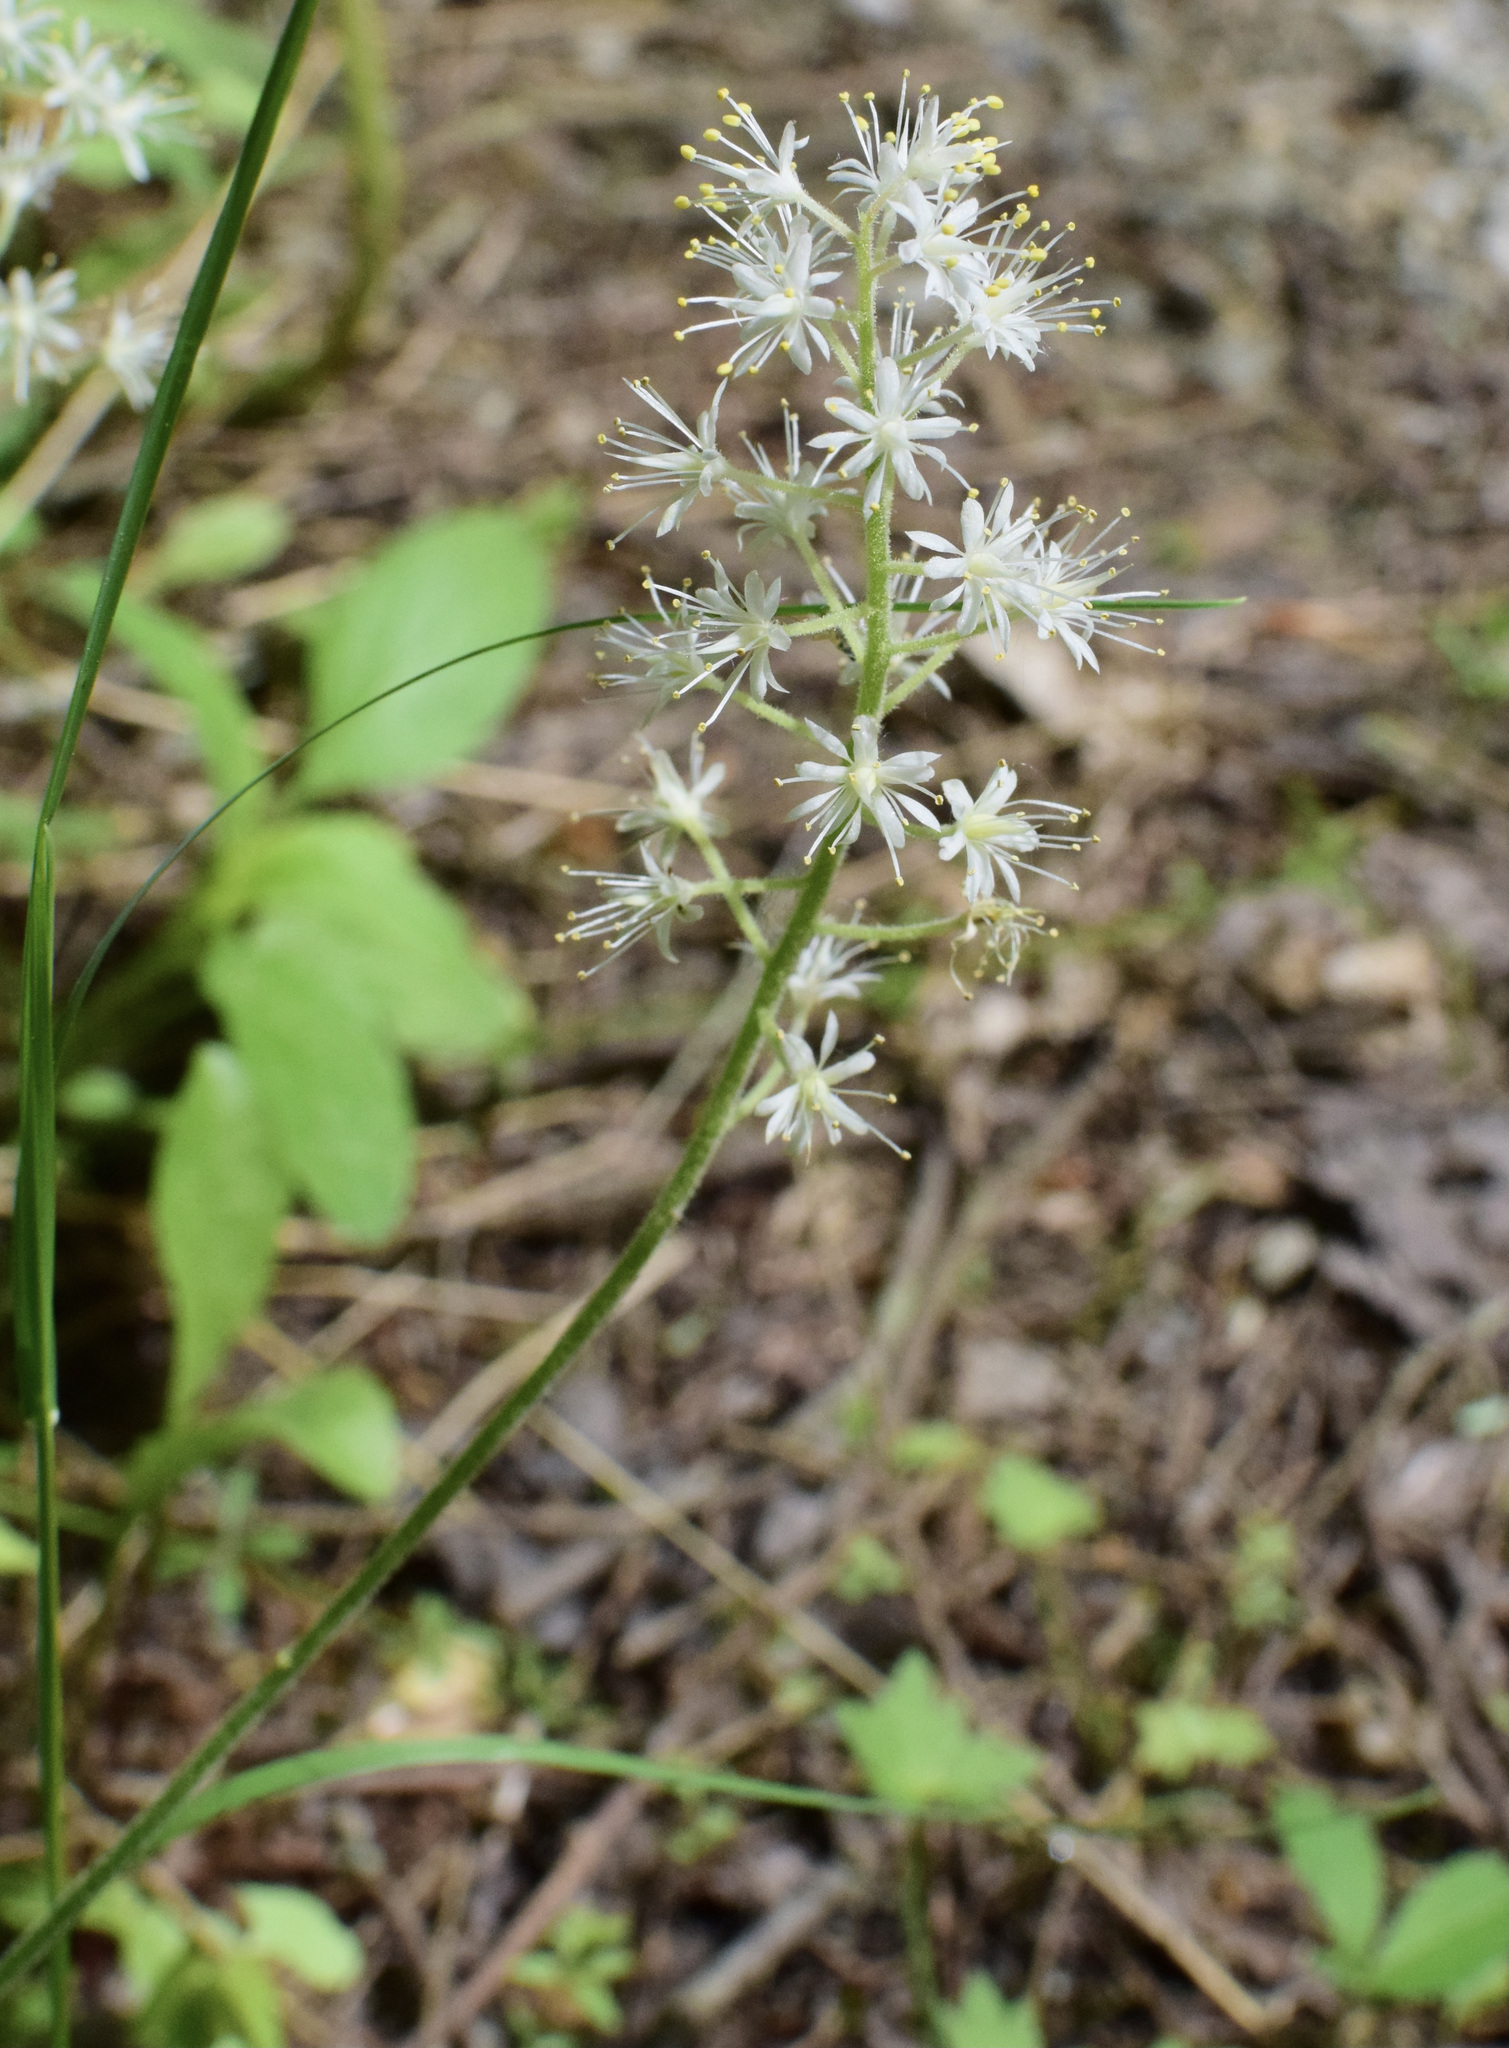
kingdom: Plantae
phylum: Tracheophyta
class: Magnoliopsida
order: Saxifragales
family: Saxifragaceae
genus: Tiarella
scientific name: Tiarella stolonifera
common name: Stoloniferous foamflower
